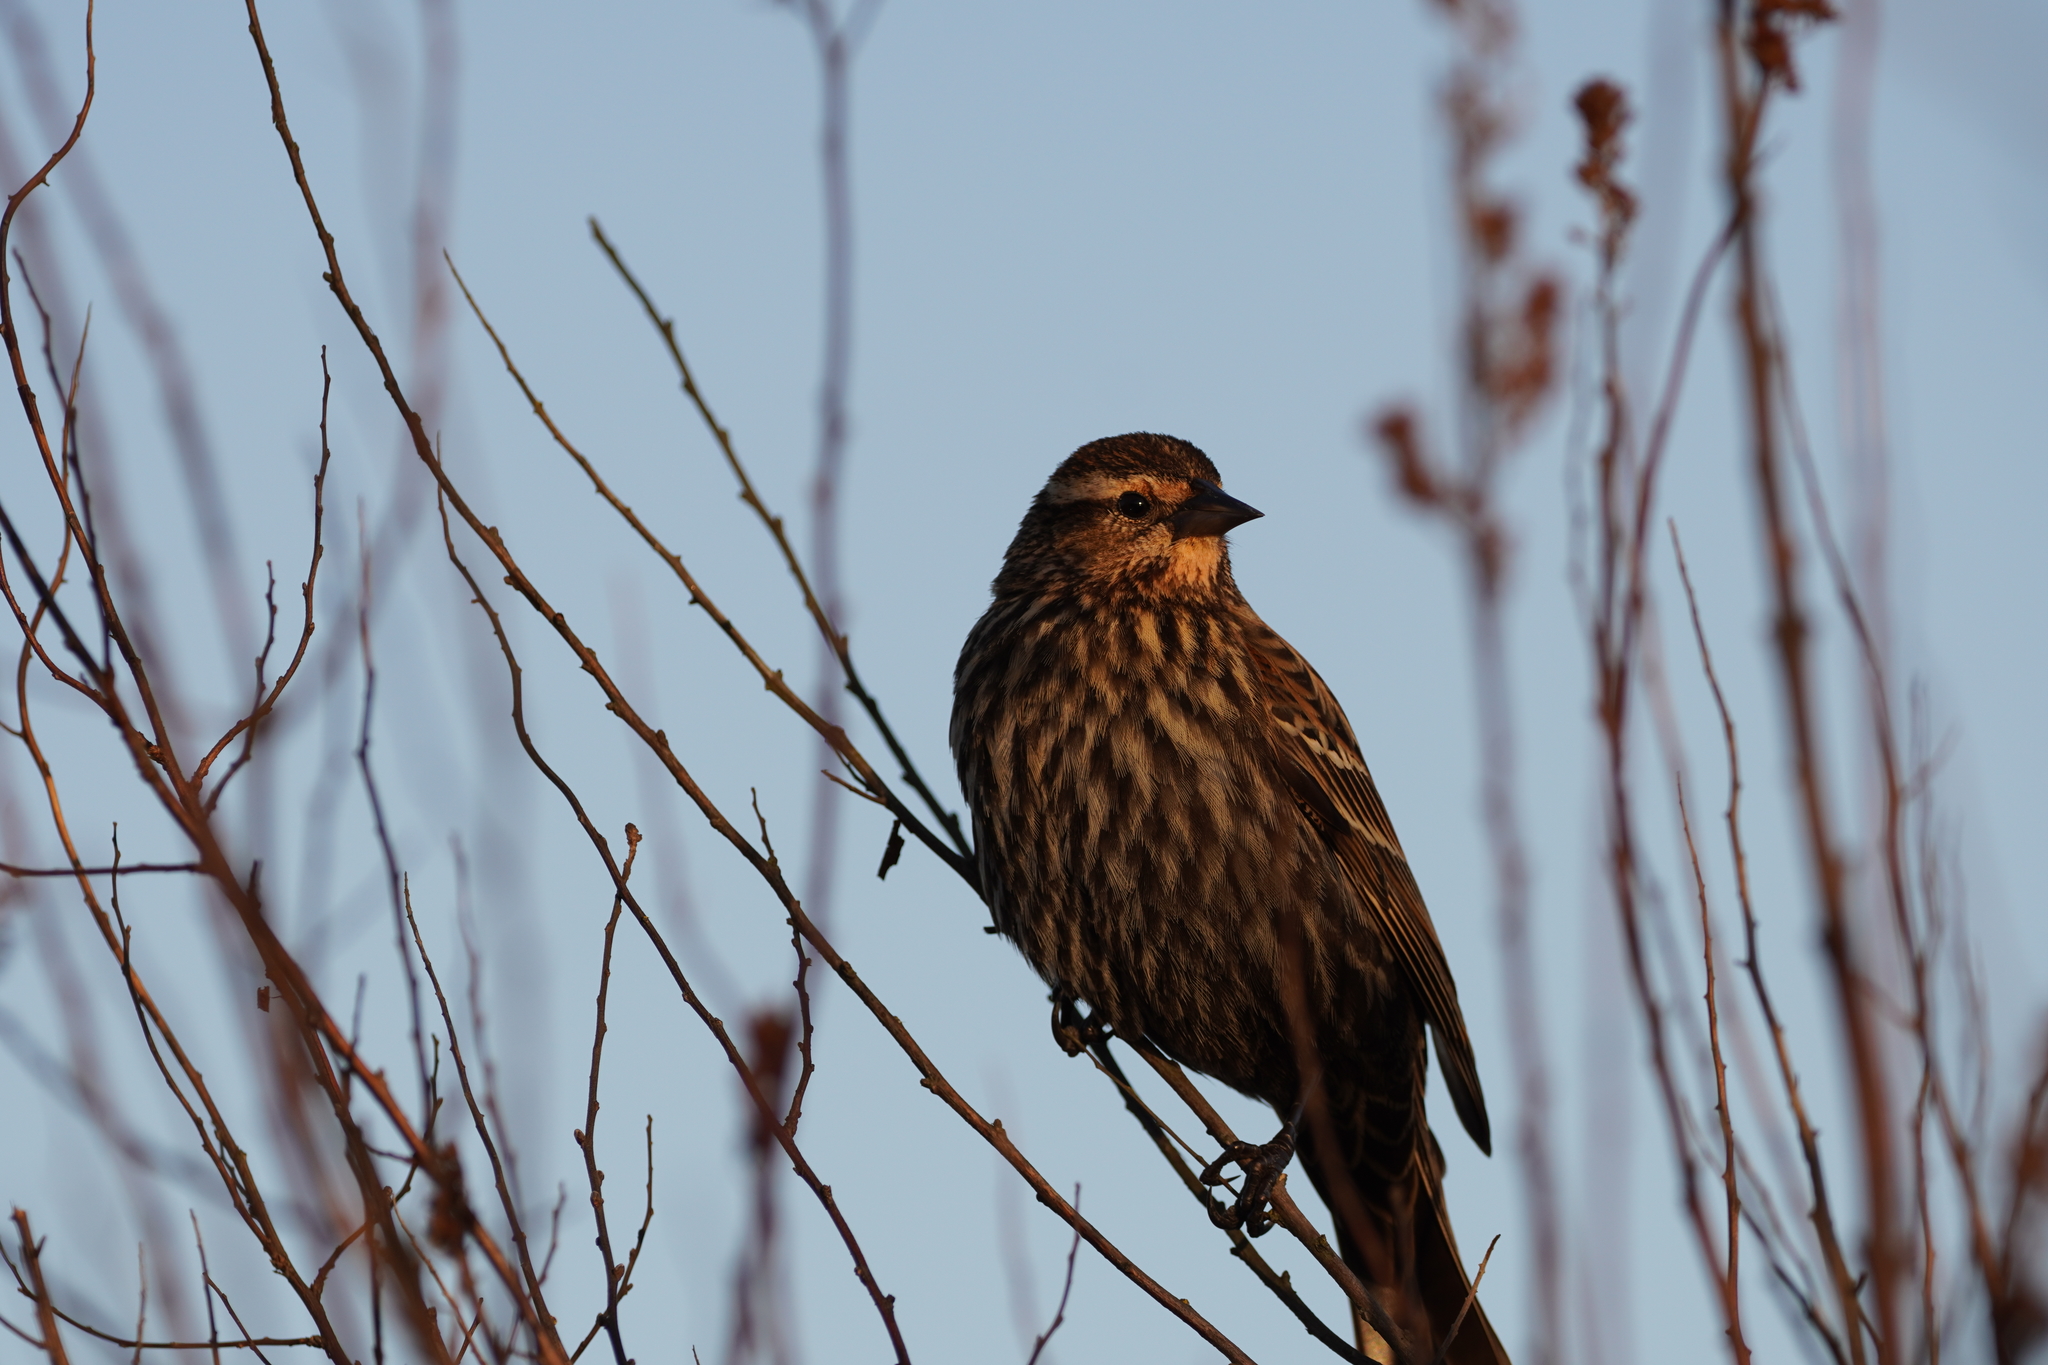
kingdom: Animalia
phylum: Chordata
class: Aves
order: Passeriformes
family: Icteridae
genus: Agelaius
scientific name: Agelaius phoeniceus
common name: Red-winged blackbird
